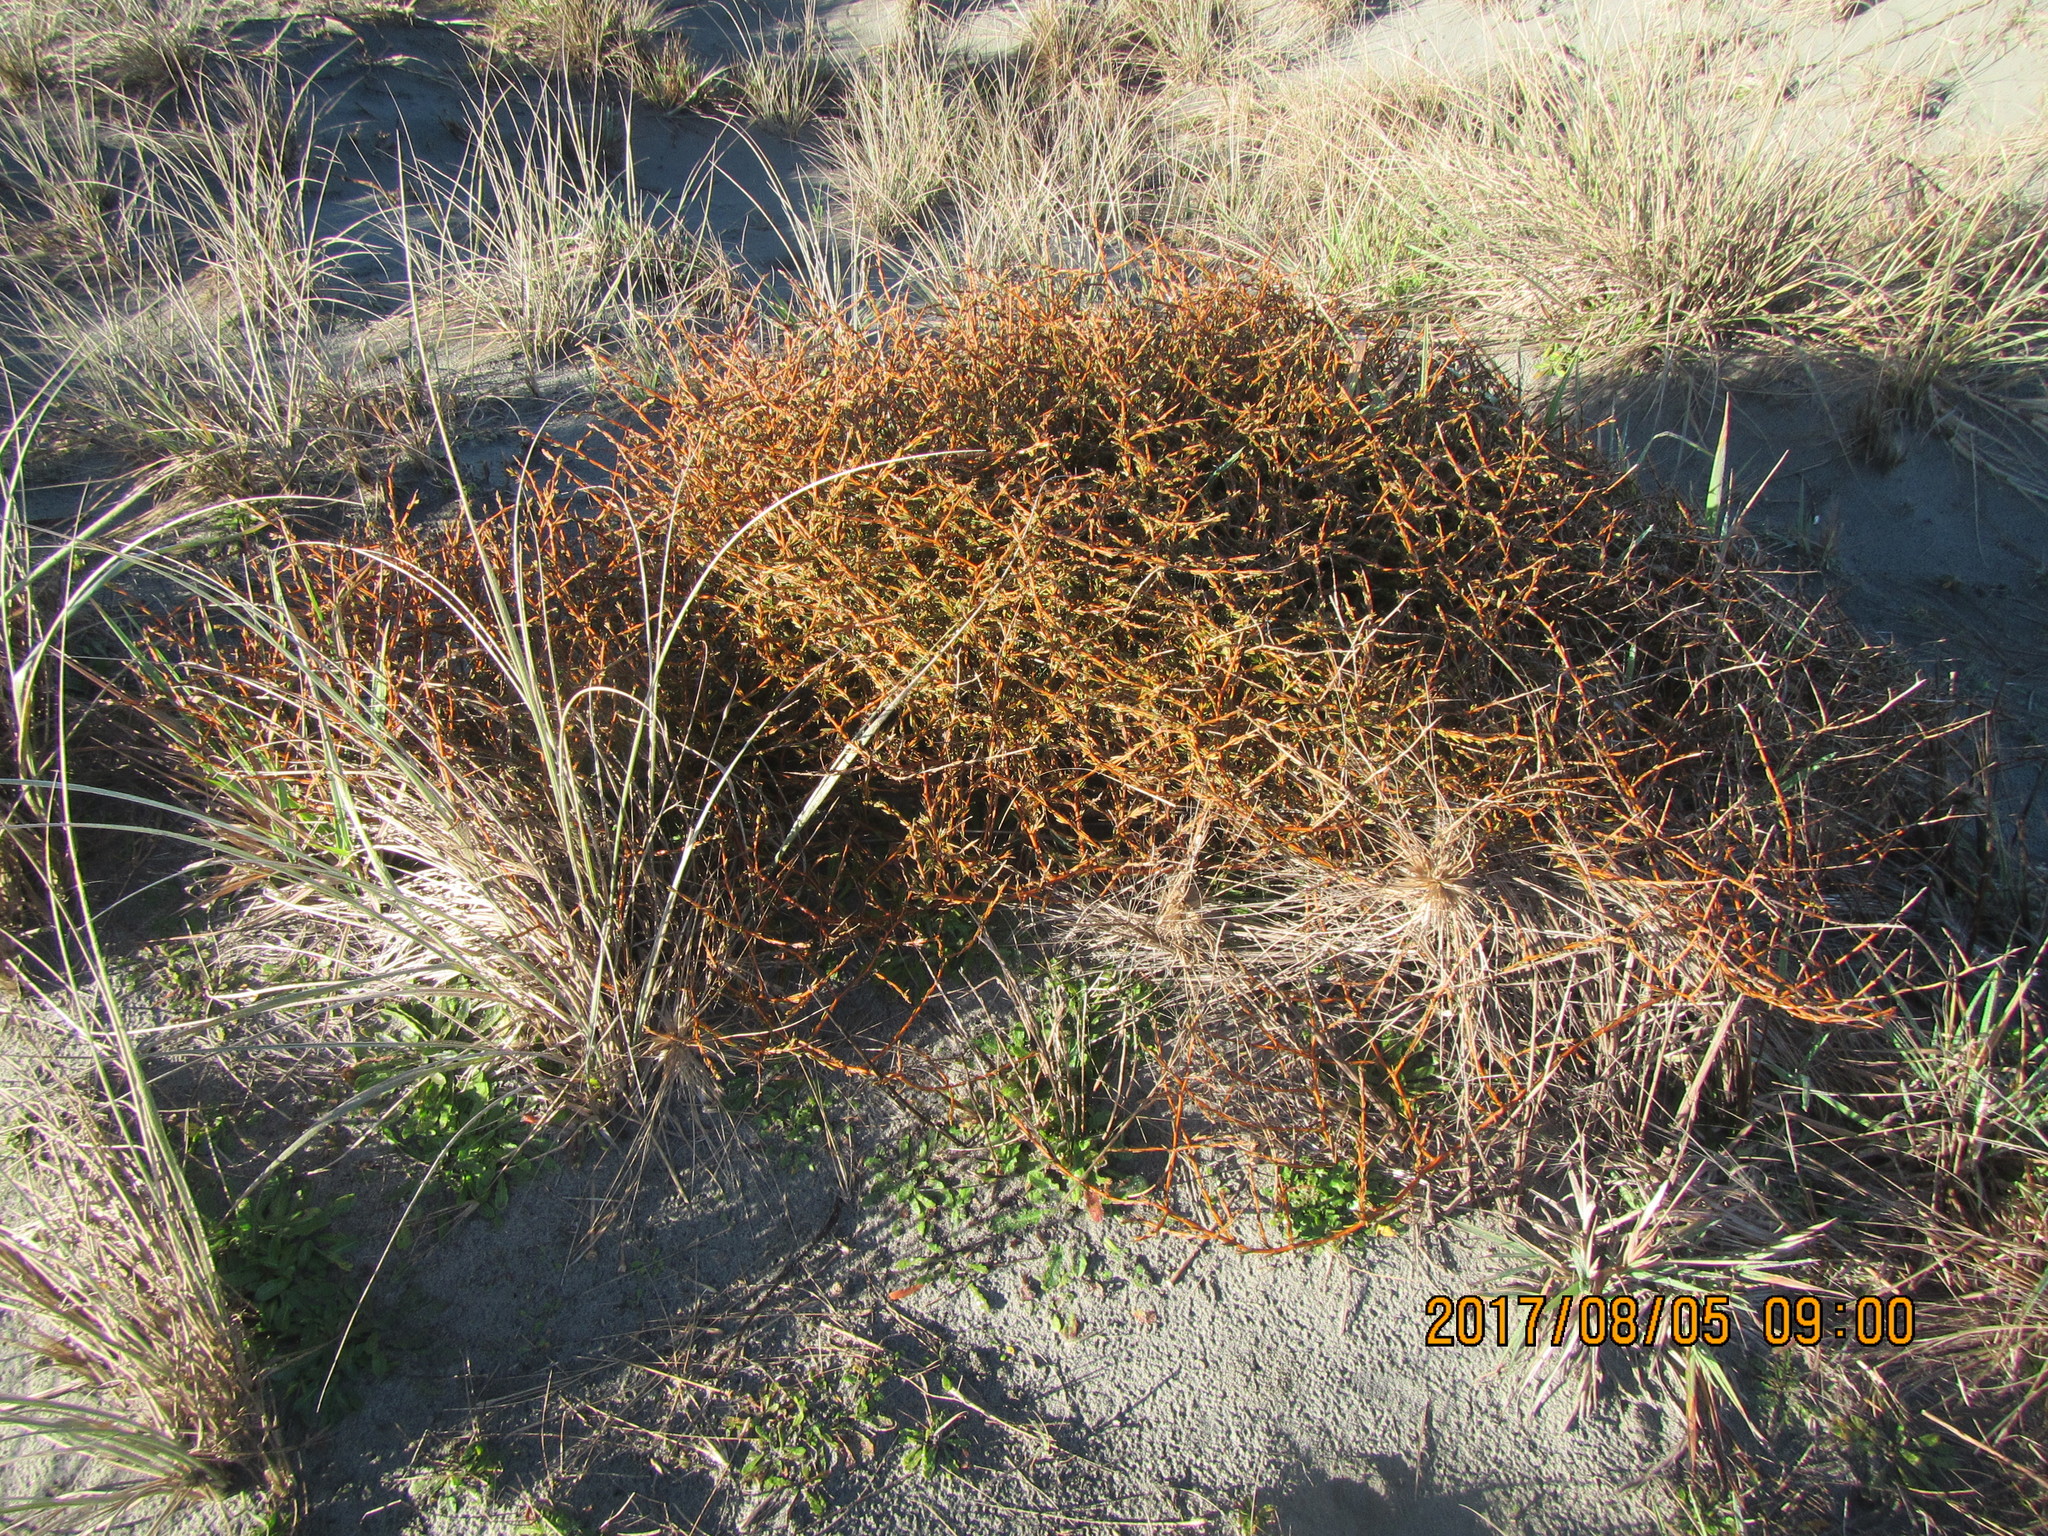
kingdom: Plantae
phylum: Tracheophyta
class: Magnoliopsida
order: Gentianales
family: Rubiaceae
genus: Coprosma
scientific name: Coprosma acerosa
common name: Sand coprosma
